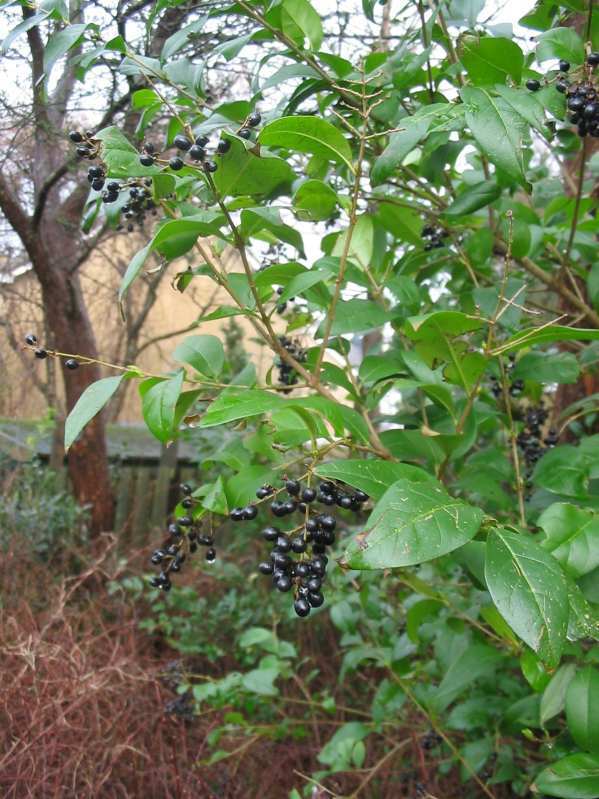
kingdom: Plantae
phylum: Tracheophyta
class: Magnoliopsida
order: Lamiales
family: Oleaceae
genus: Ligustrum
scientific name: Ligustrum ovalifolium
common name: California privet
